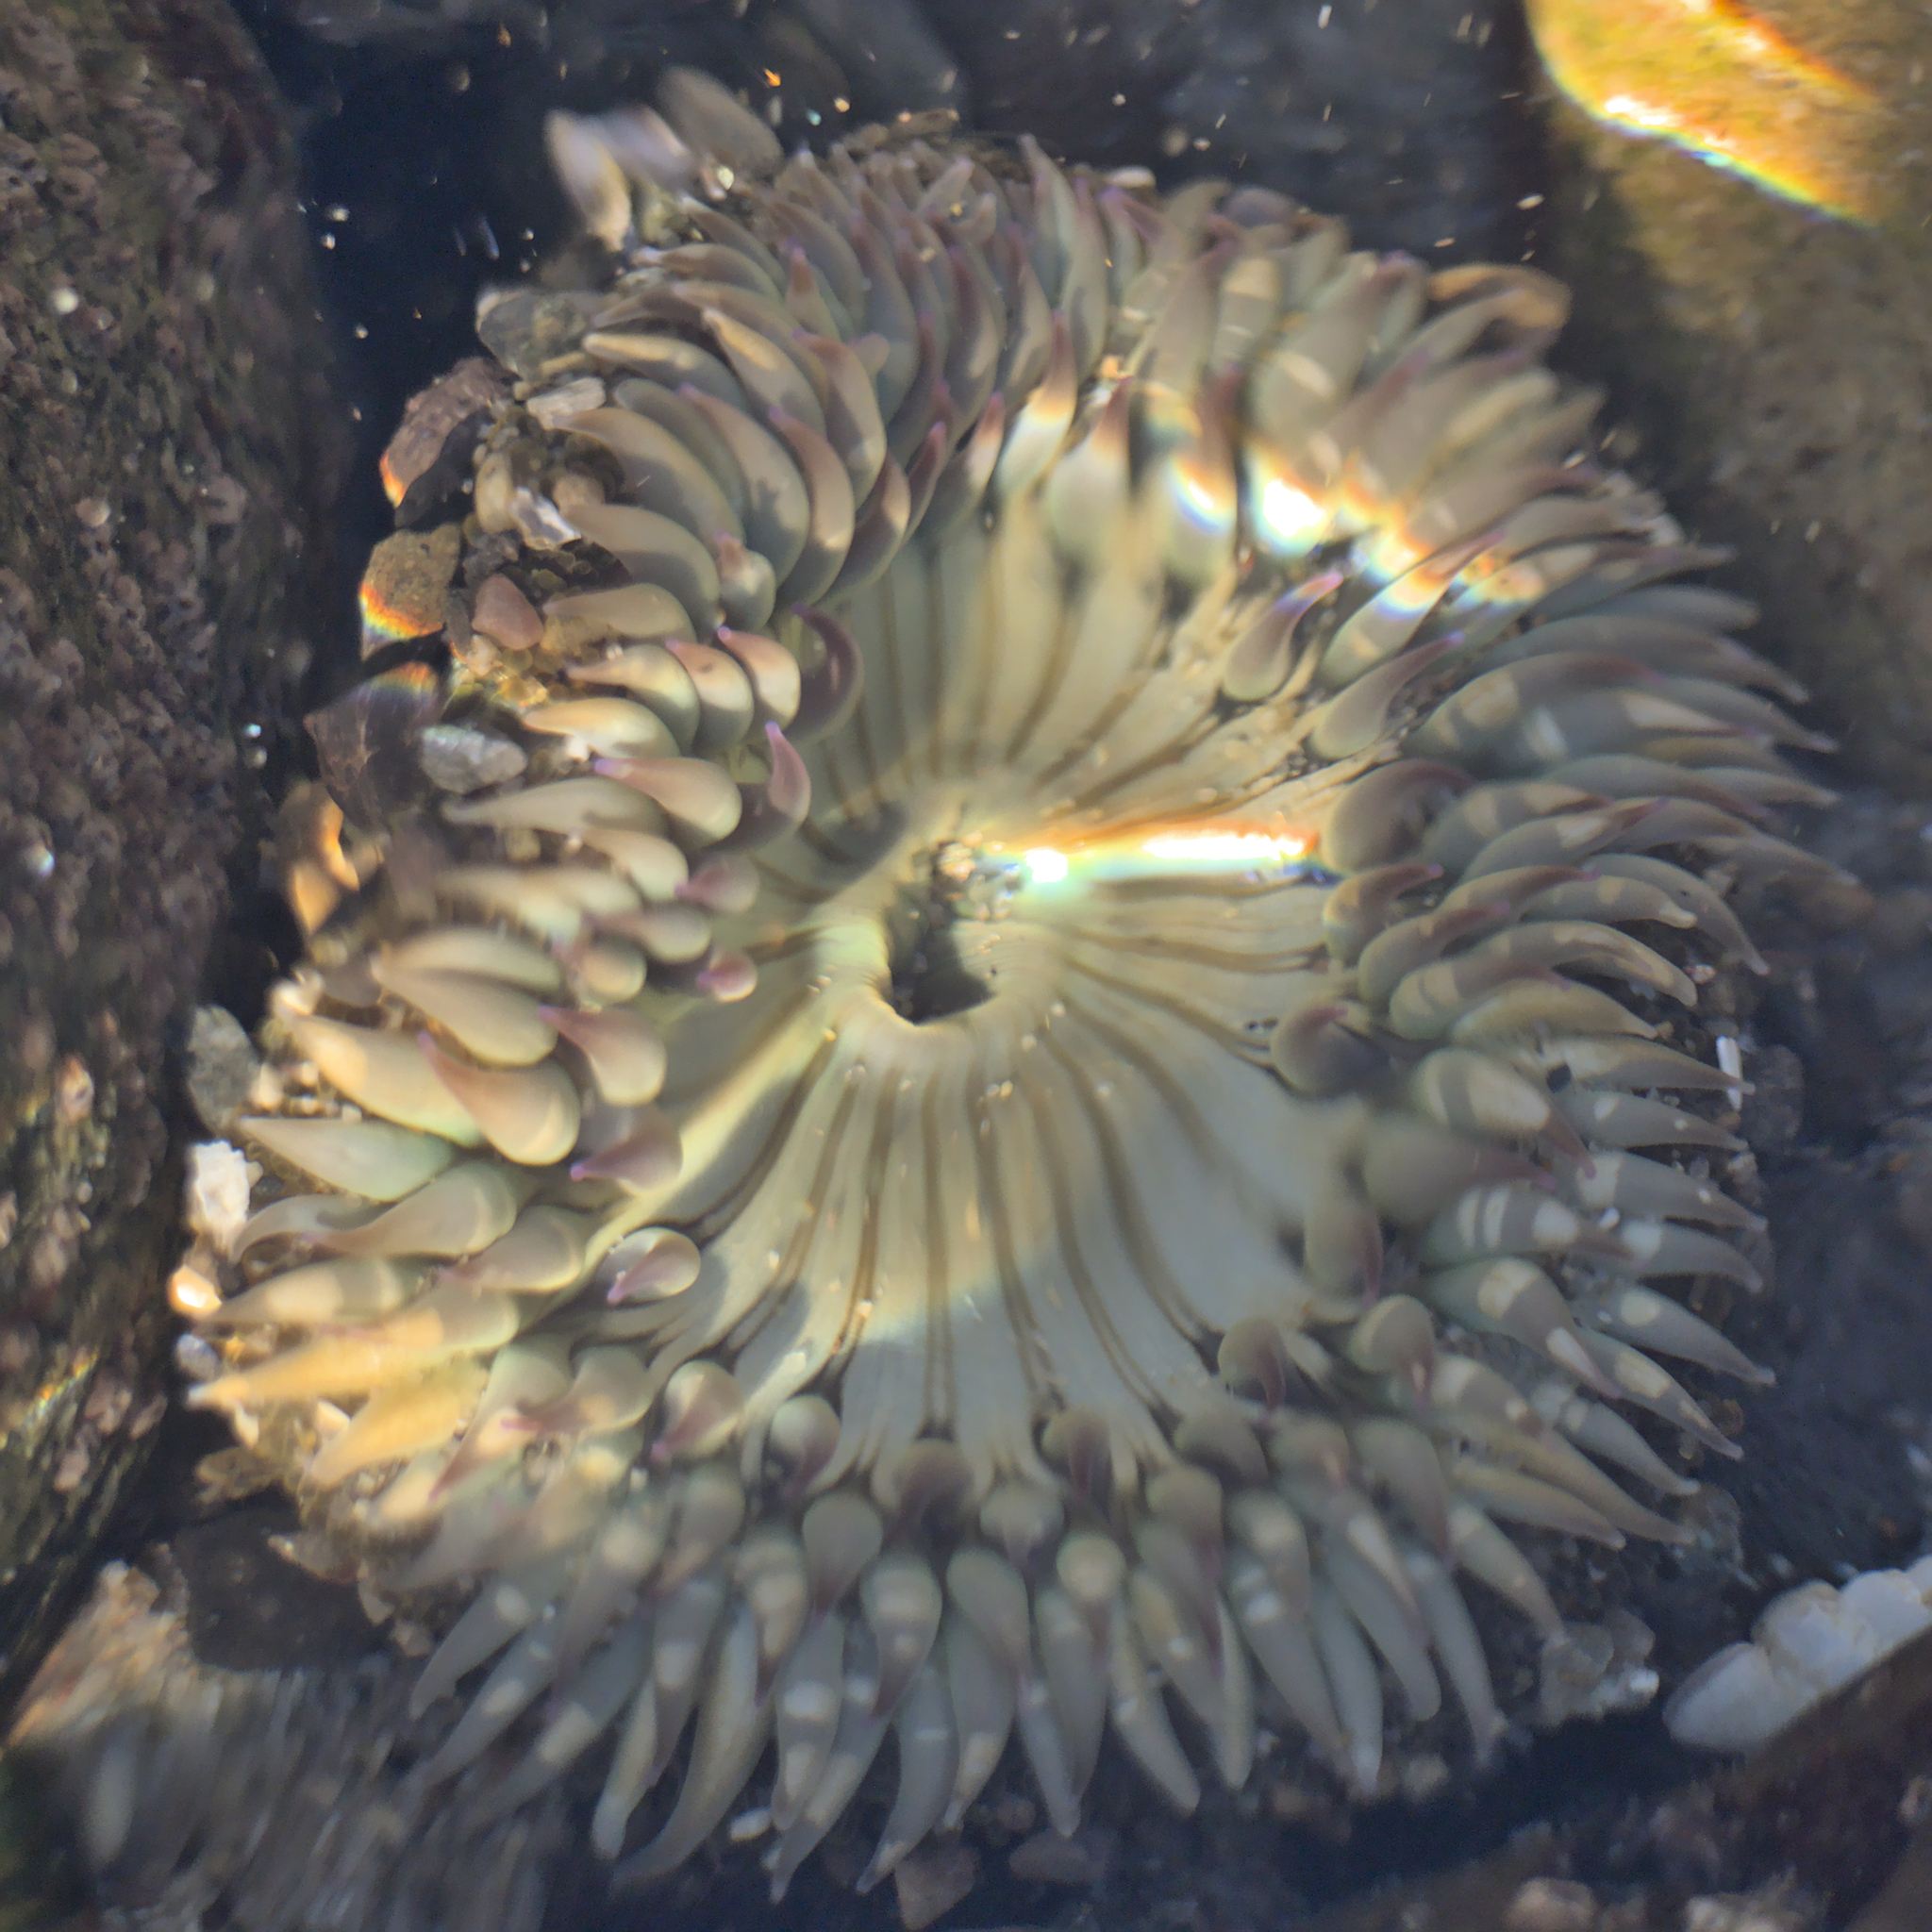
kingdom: Animalia
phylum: Cnidaria
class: Anthozoa
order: Actiniaria
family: Actiniidae
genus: Anthopleura
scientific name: Anthopleura sola
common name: Sun anemone
